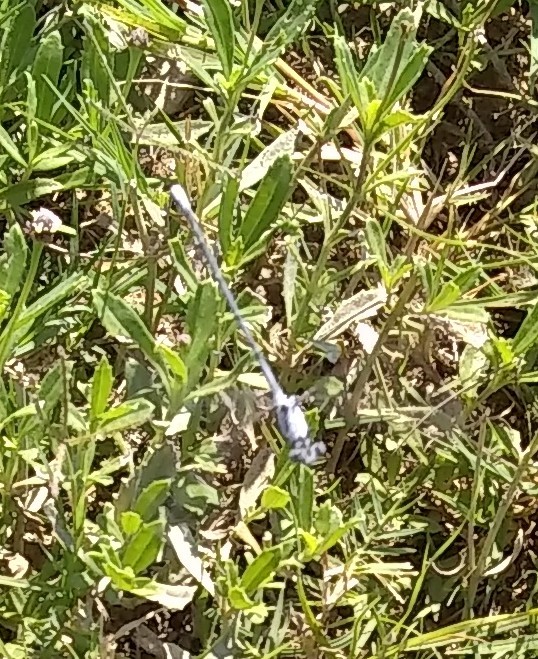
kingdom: Animalia
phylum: Arthropoda
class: Insecta
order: Odonata
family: Coenagrionidae
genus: Argia
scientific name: Argia moesta
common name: Powdered dancer
